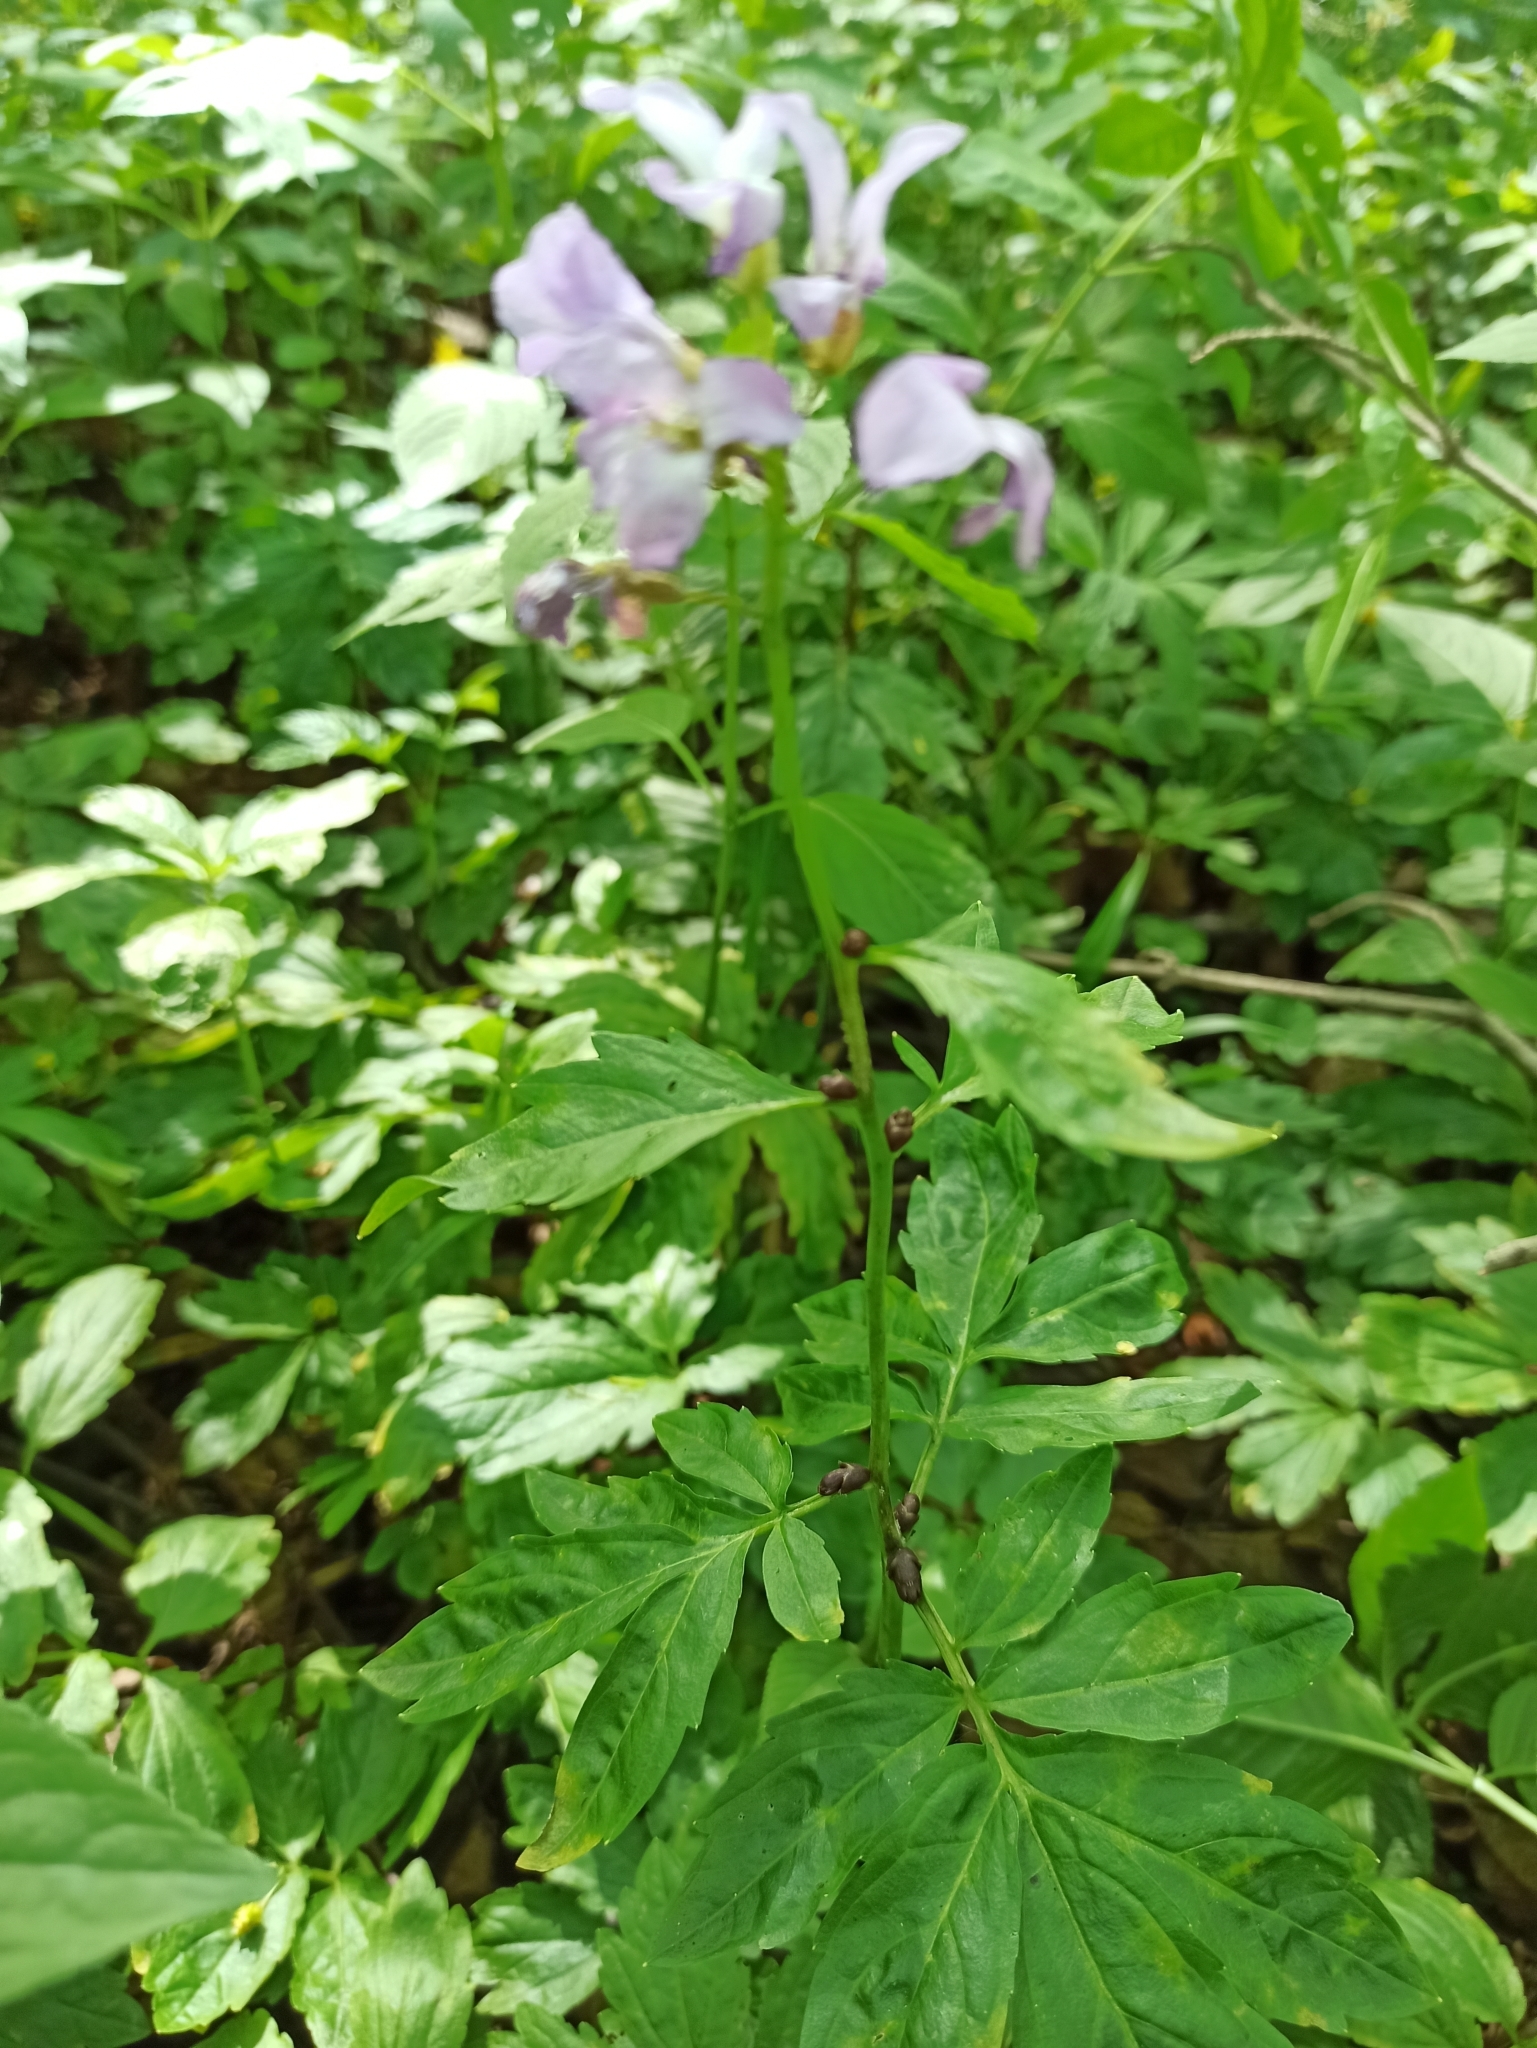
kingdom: Plantae
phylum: Tracheophyta
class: Magnoliopsida
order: Brassicales
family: Brassicaceae
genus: Cardamine
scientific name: Cardamine bulbifera
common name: Coralroot bittercress
